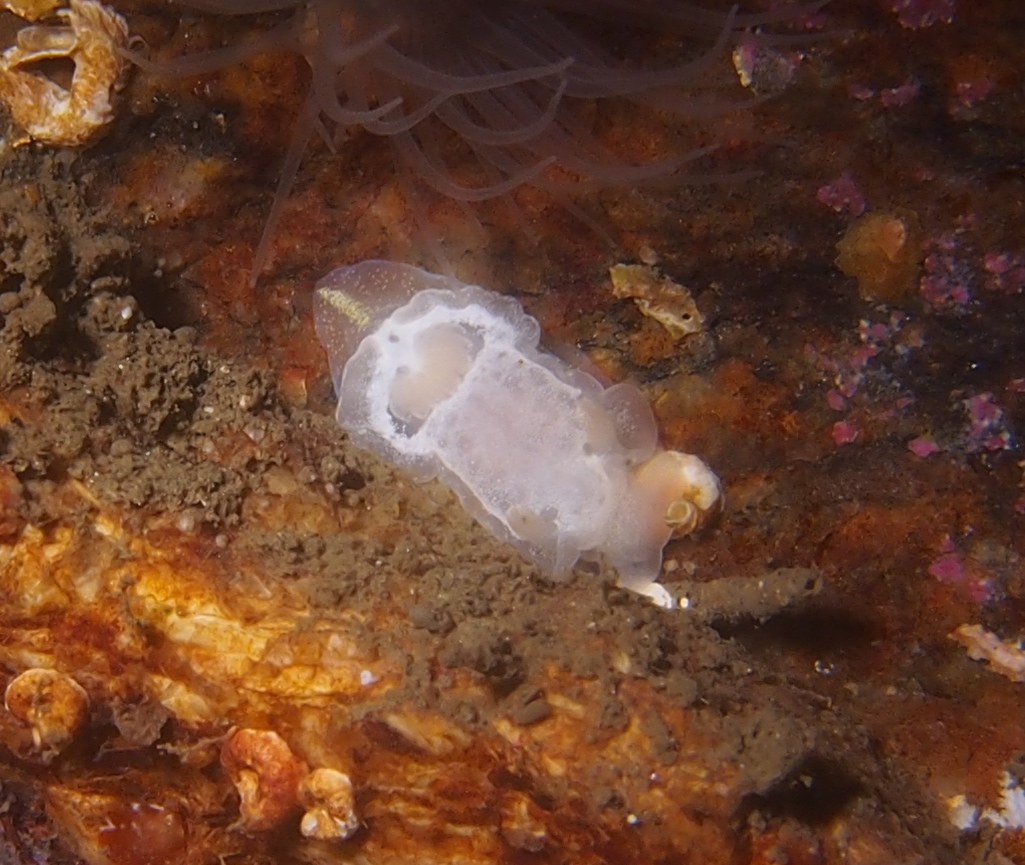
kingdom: Animalia
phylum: Mollusca
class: Gastropoda
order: Nudibranchia
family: Goniodorididae
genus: Okenia
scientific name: Okenia
